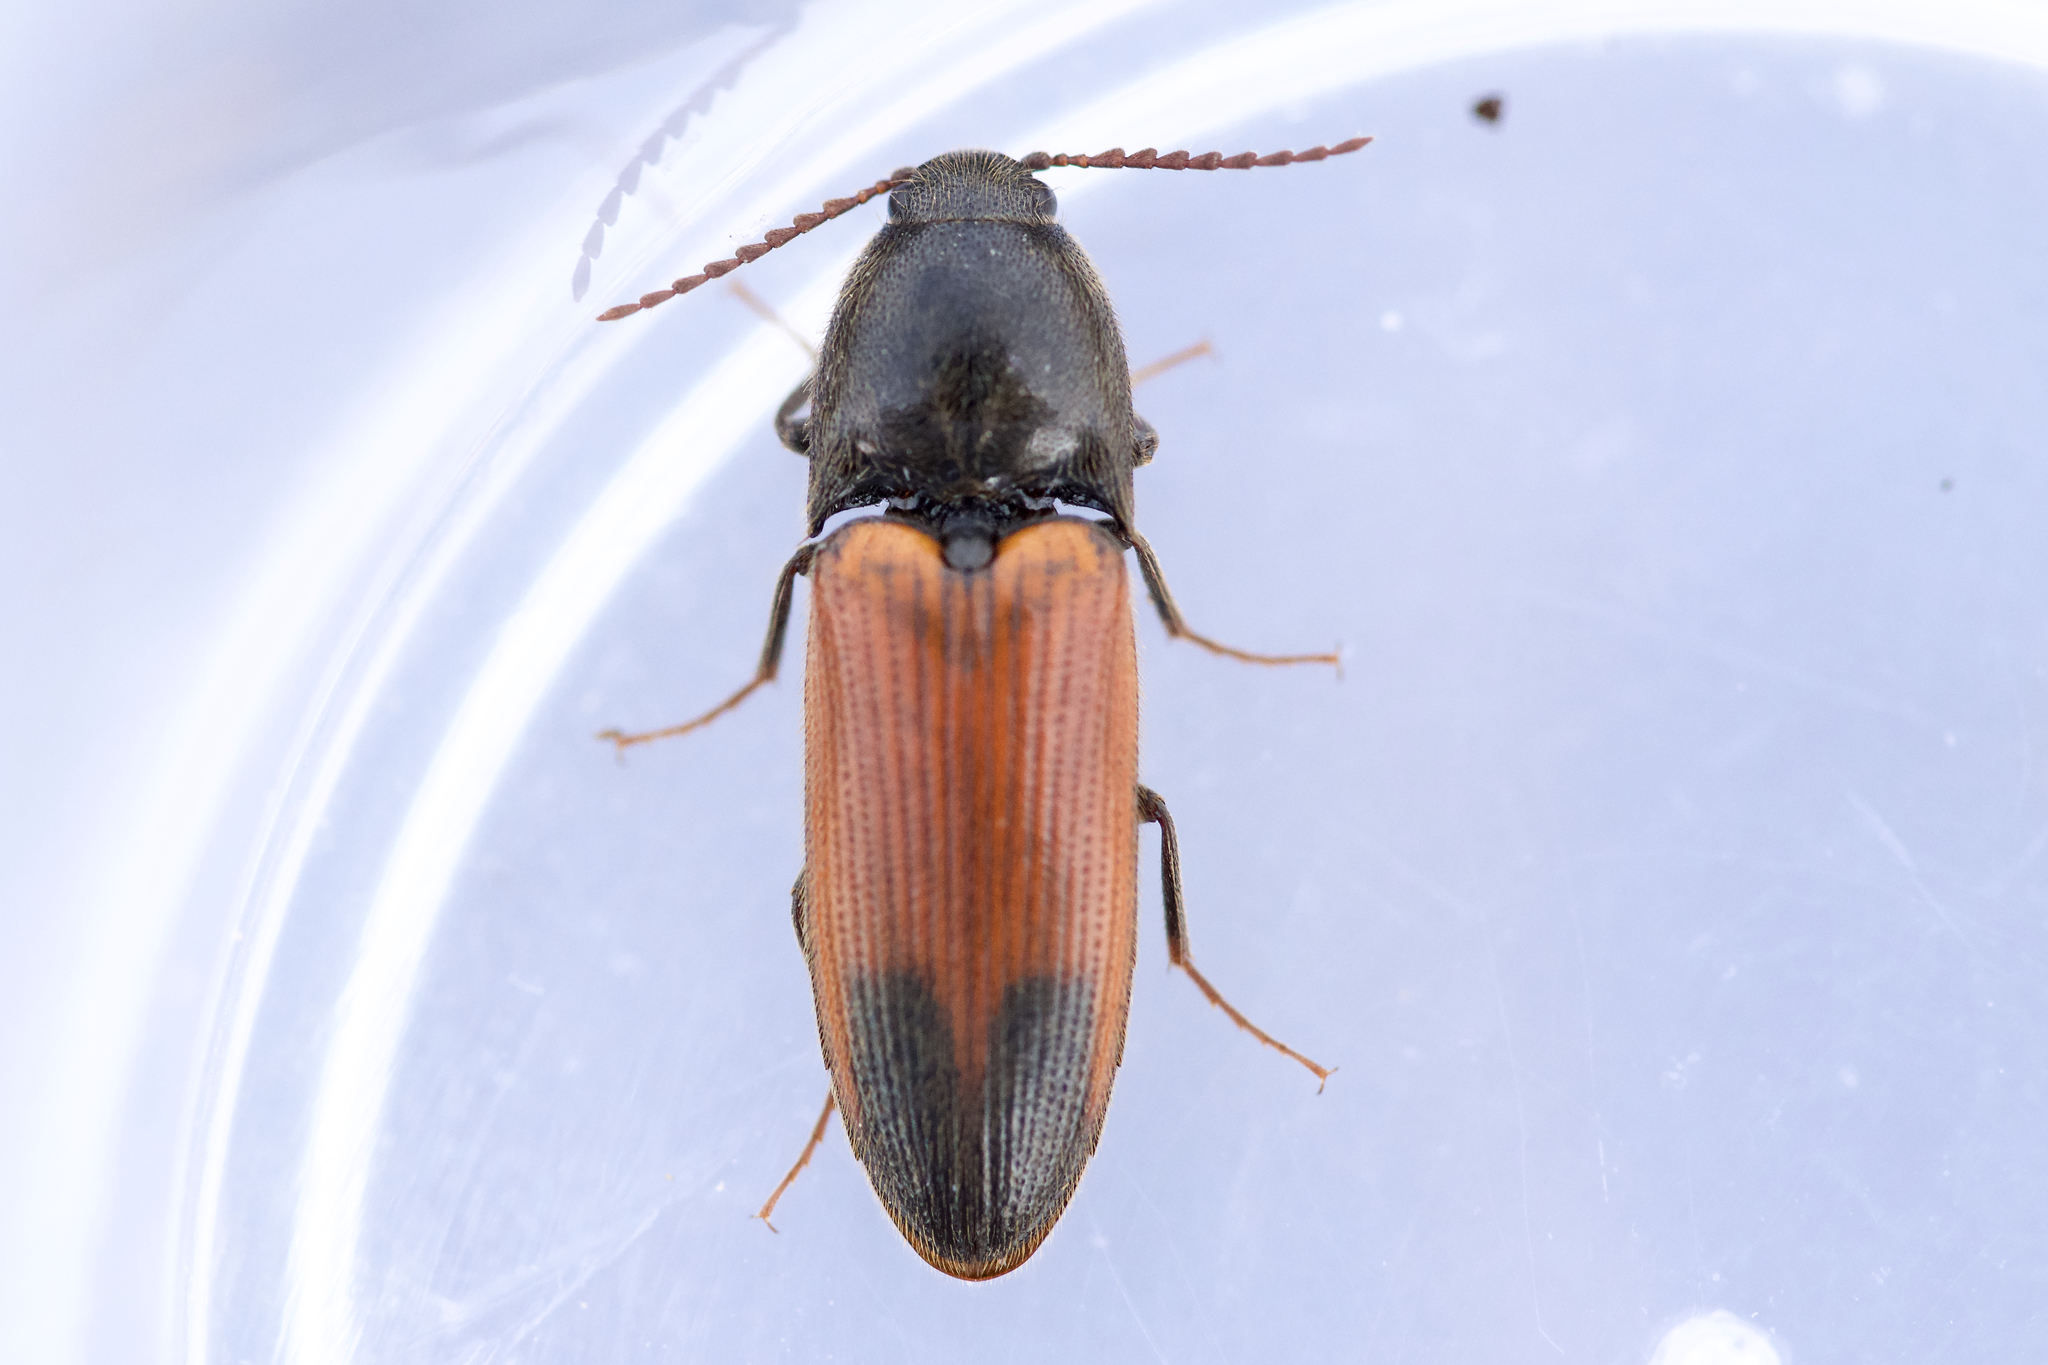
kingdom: Animalia
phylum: Arthropoda
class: Insecta
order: Coleoptera
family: Elateridae
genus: Ampedus
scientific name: Ampedus apicatus
